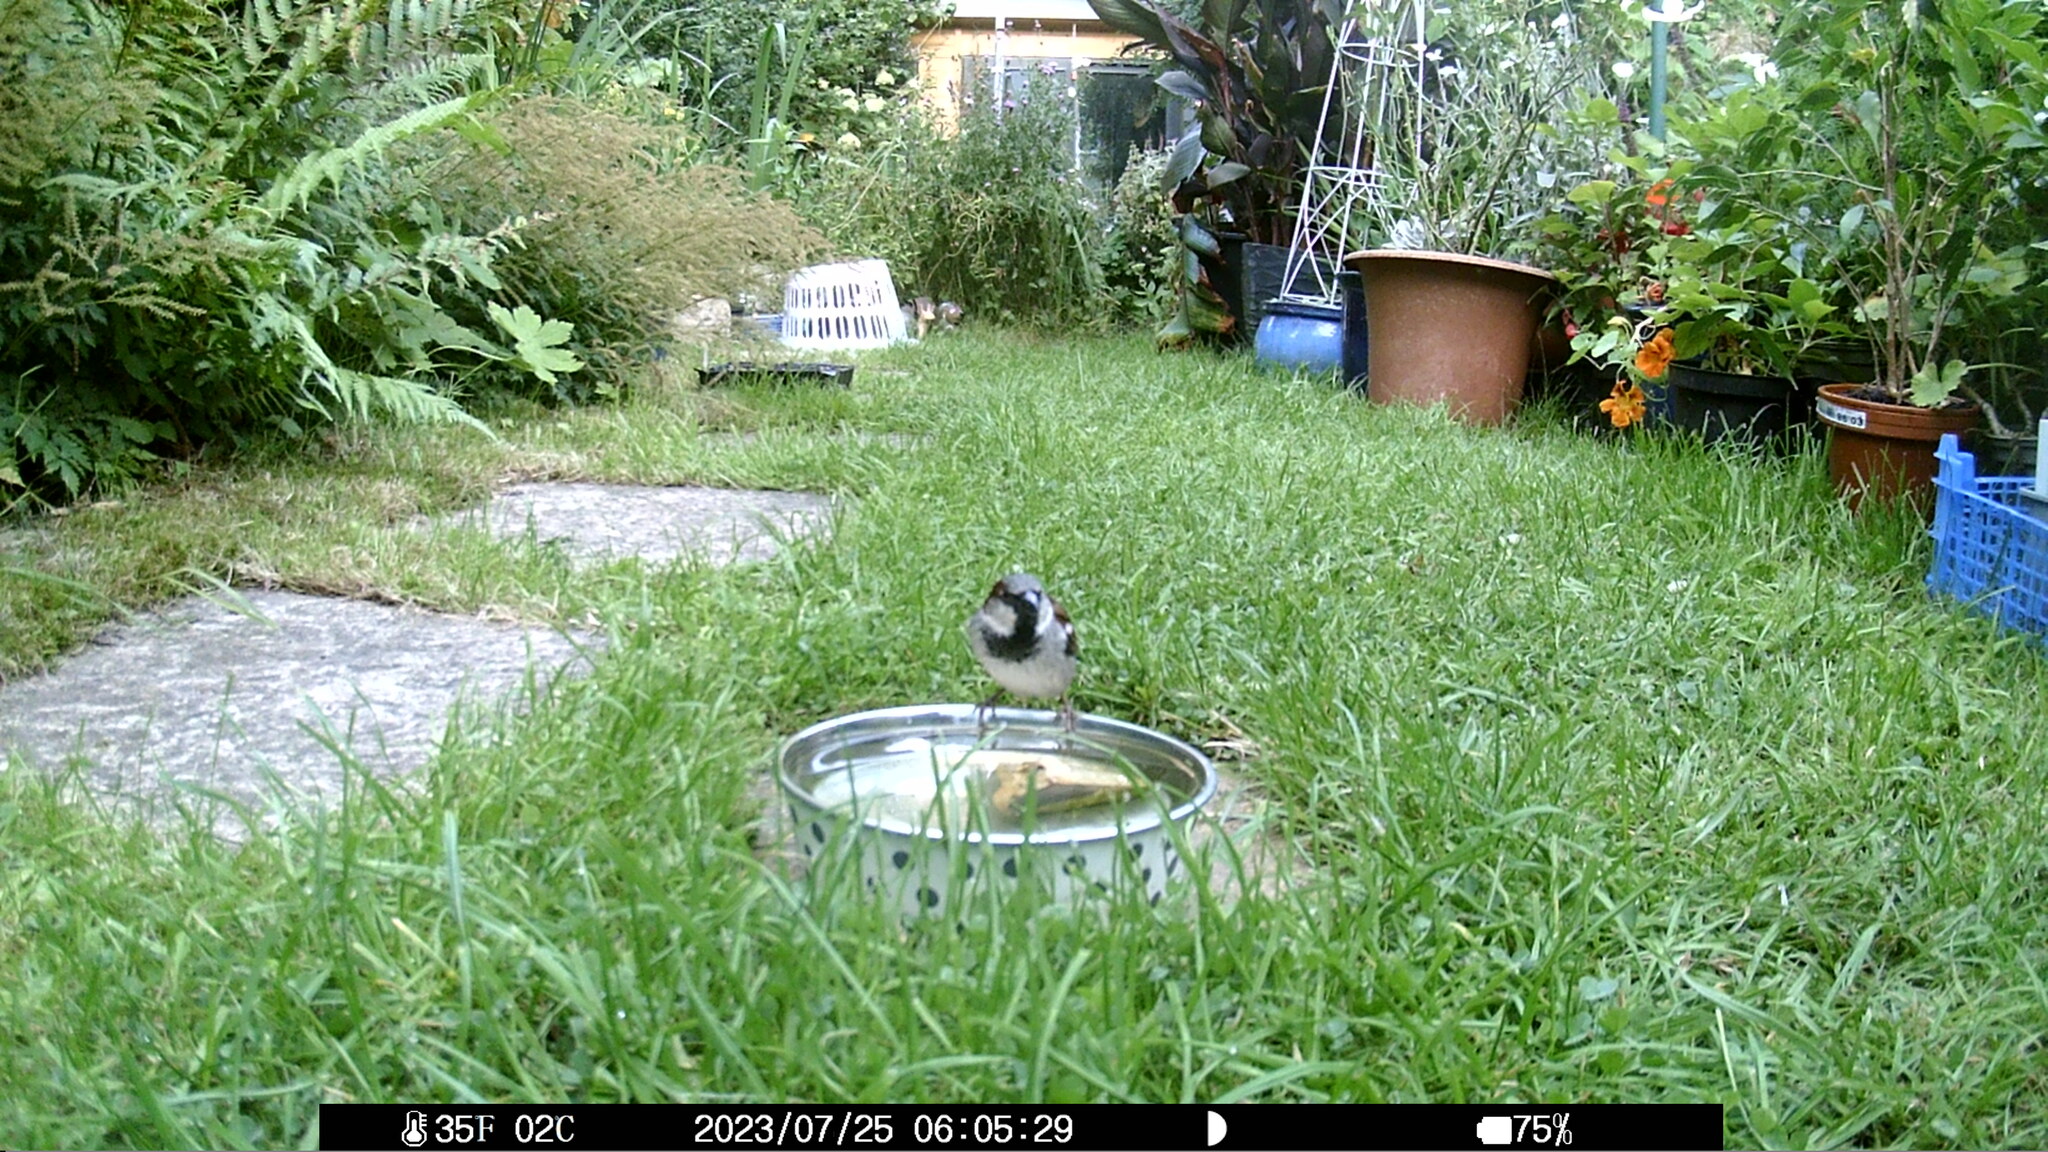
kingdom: Animalia
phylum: Chordata
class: Aves
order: Passeriformes
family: Passeridae
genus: Passer
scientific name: Passer domesticus
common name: House sparrow
